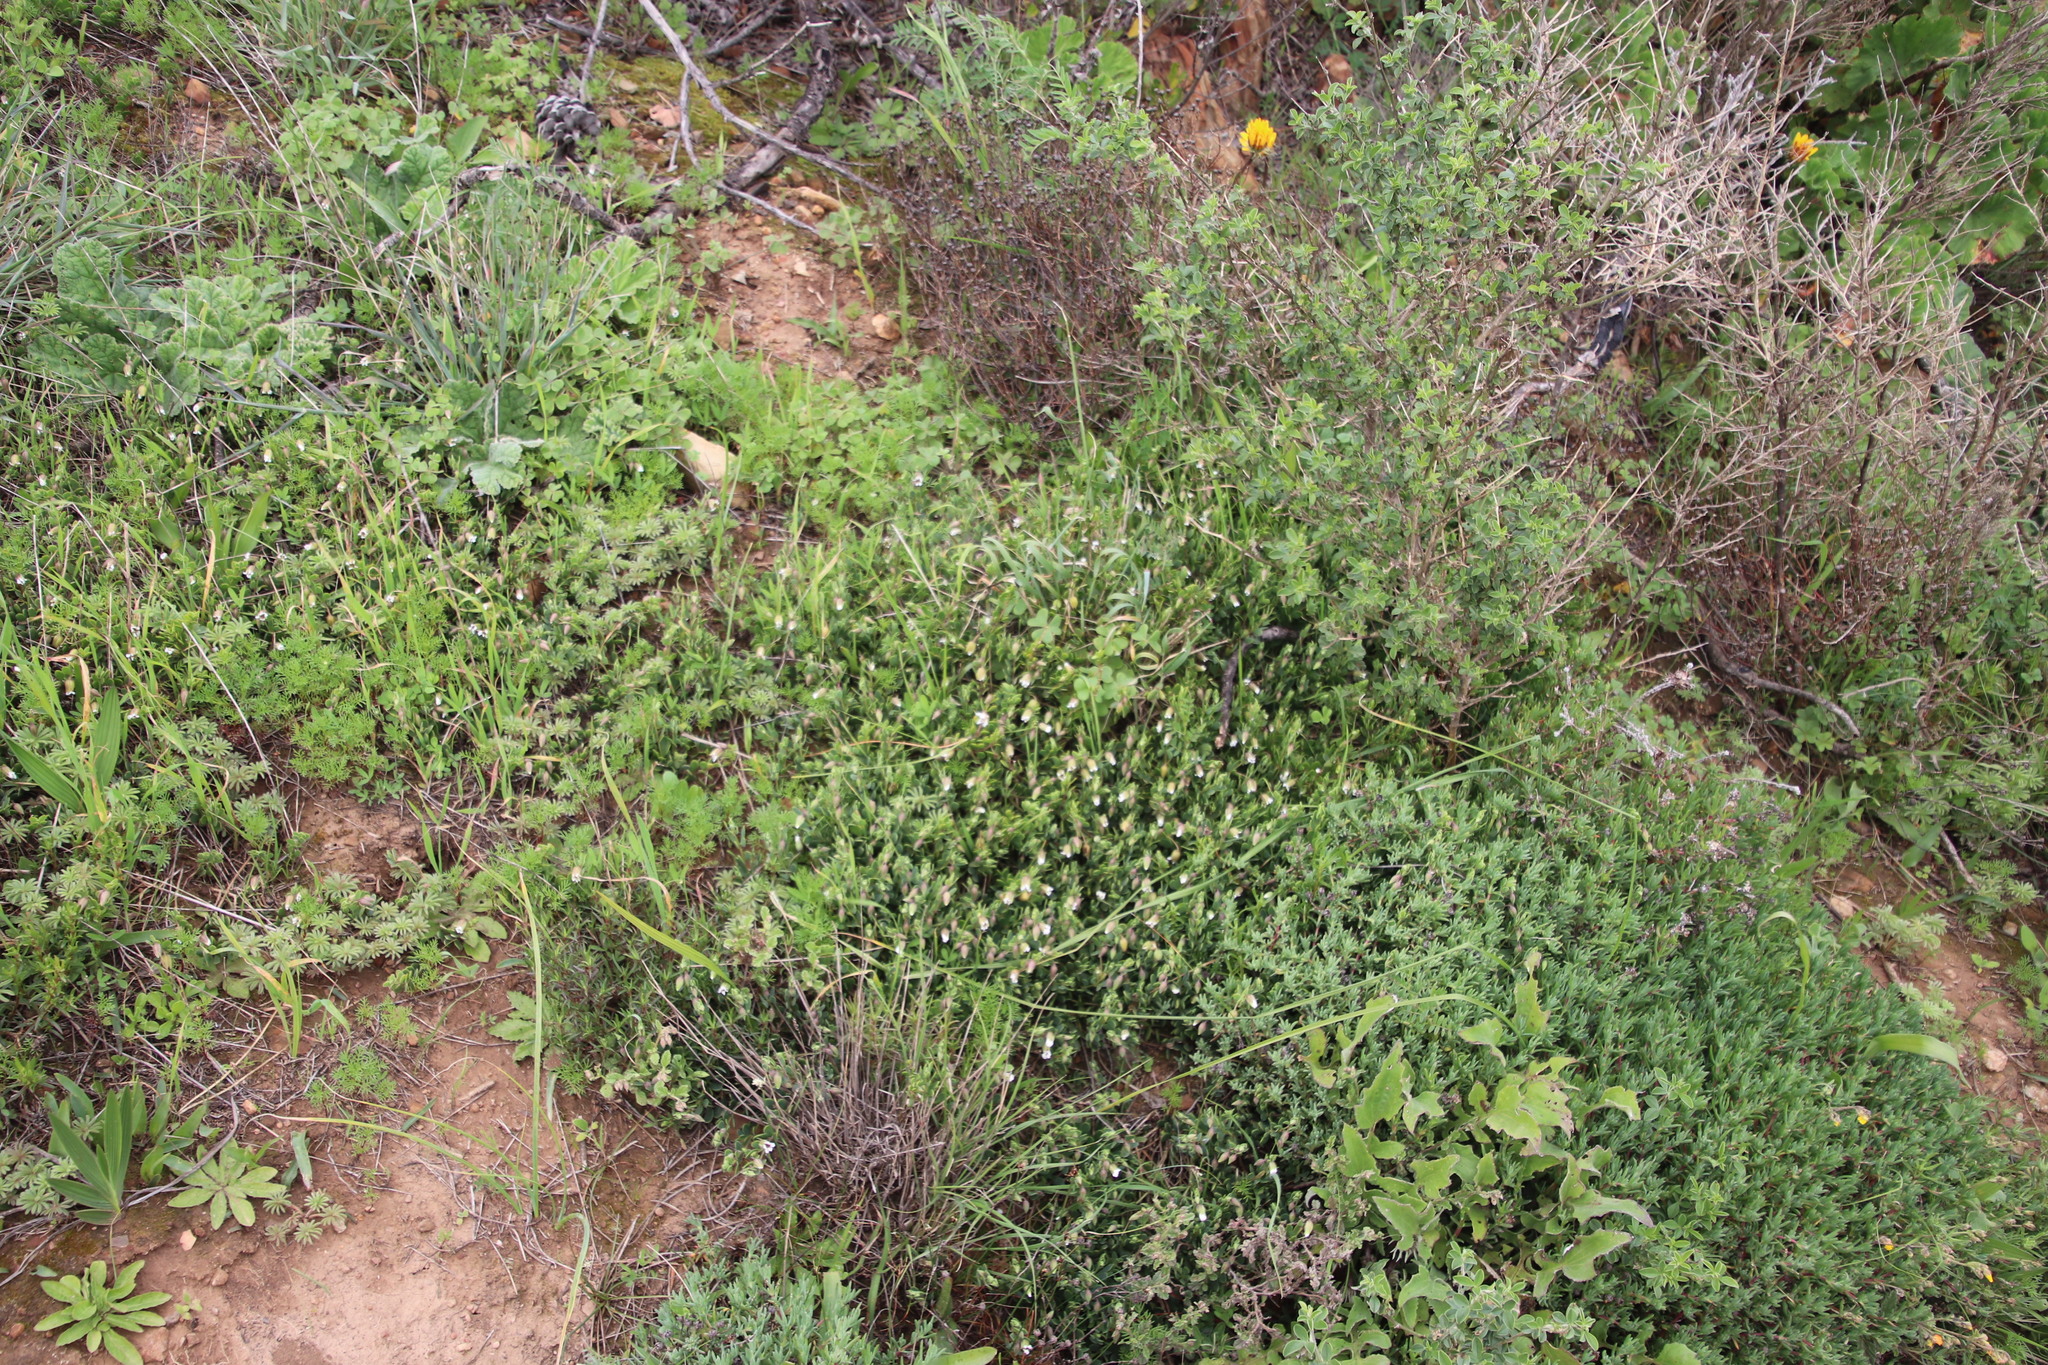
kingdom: Plantae
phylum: Tracheophyta
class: Magnoliopsida
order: Zygophyllales
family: Zygophyllaceae
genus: Roepera
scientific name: Roepera sessilifolia
